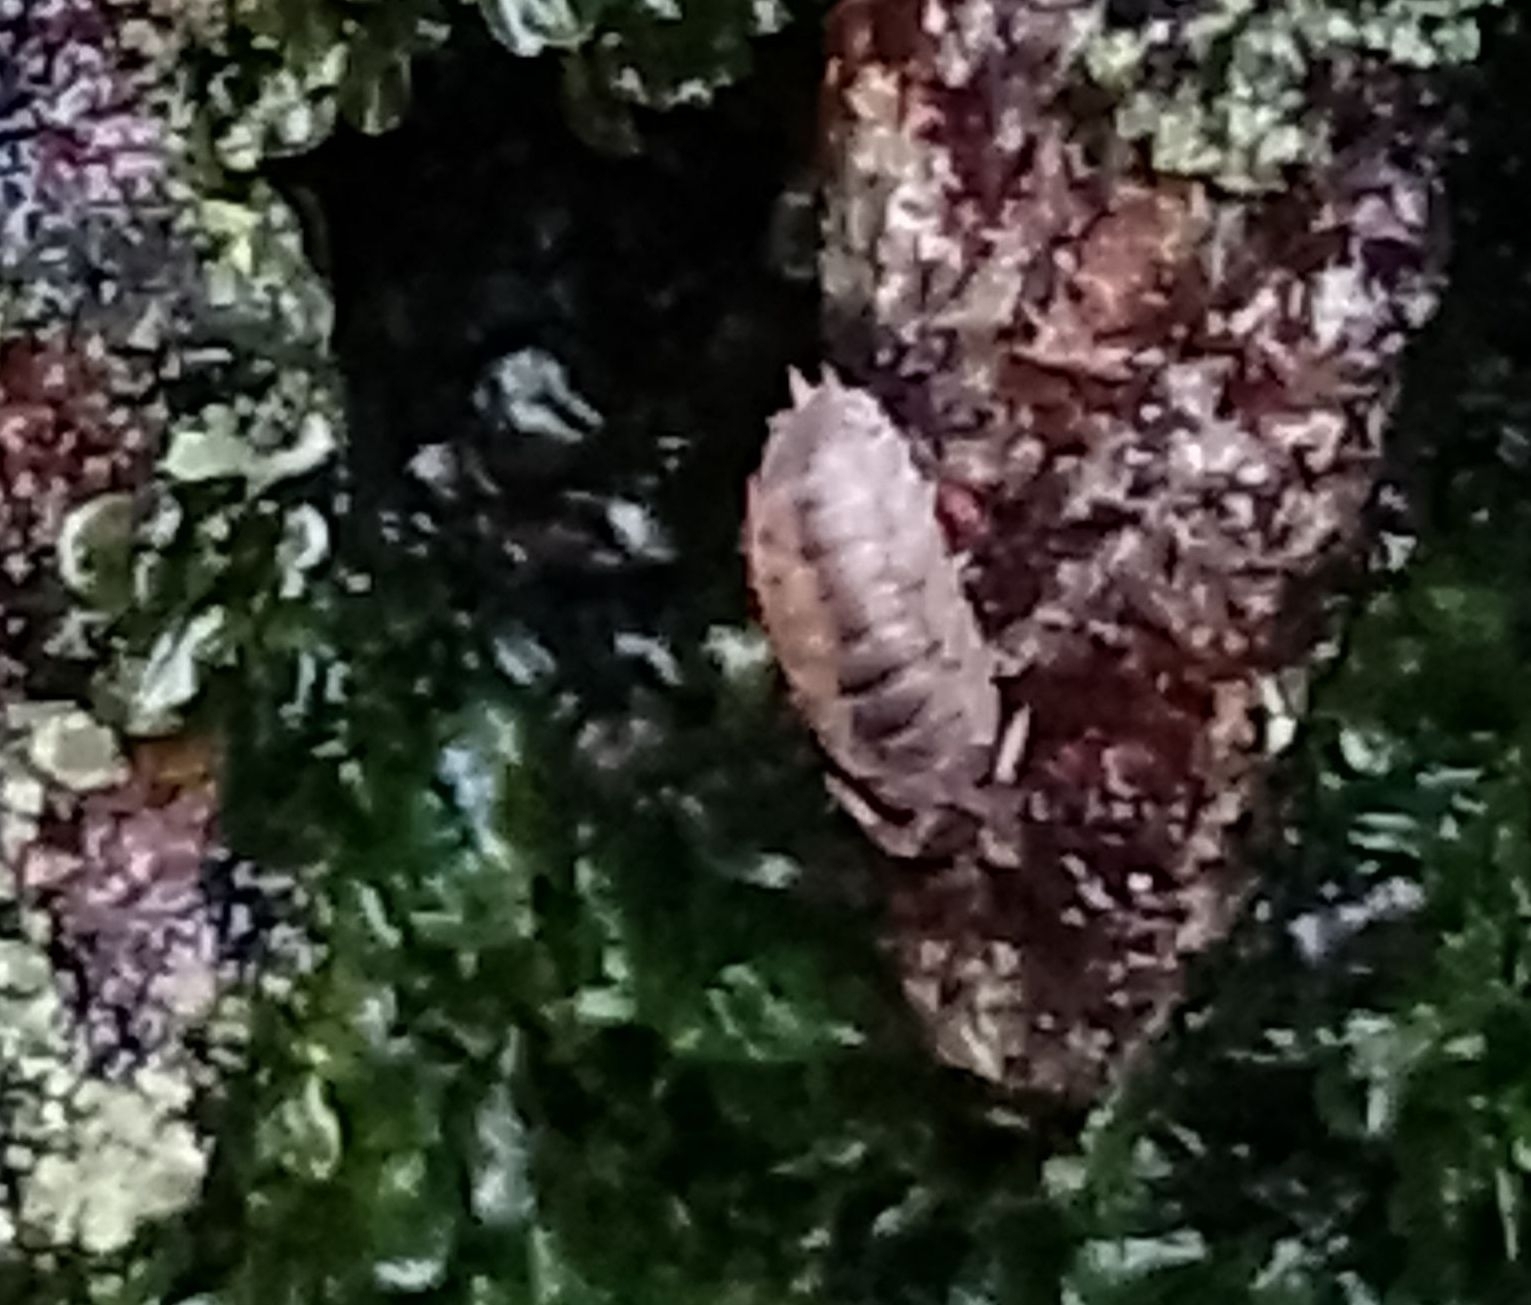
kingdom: Animalia
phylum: Arthropoda
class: Malacostraca
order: Isopoda
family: Porcellionidae
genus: Porcellio
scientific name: Porcellio scaber
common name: Common rough woodlouse
